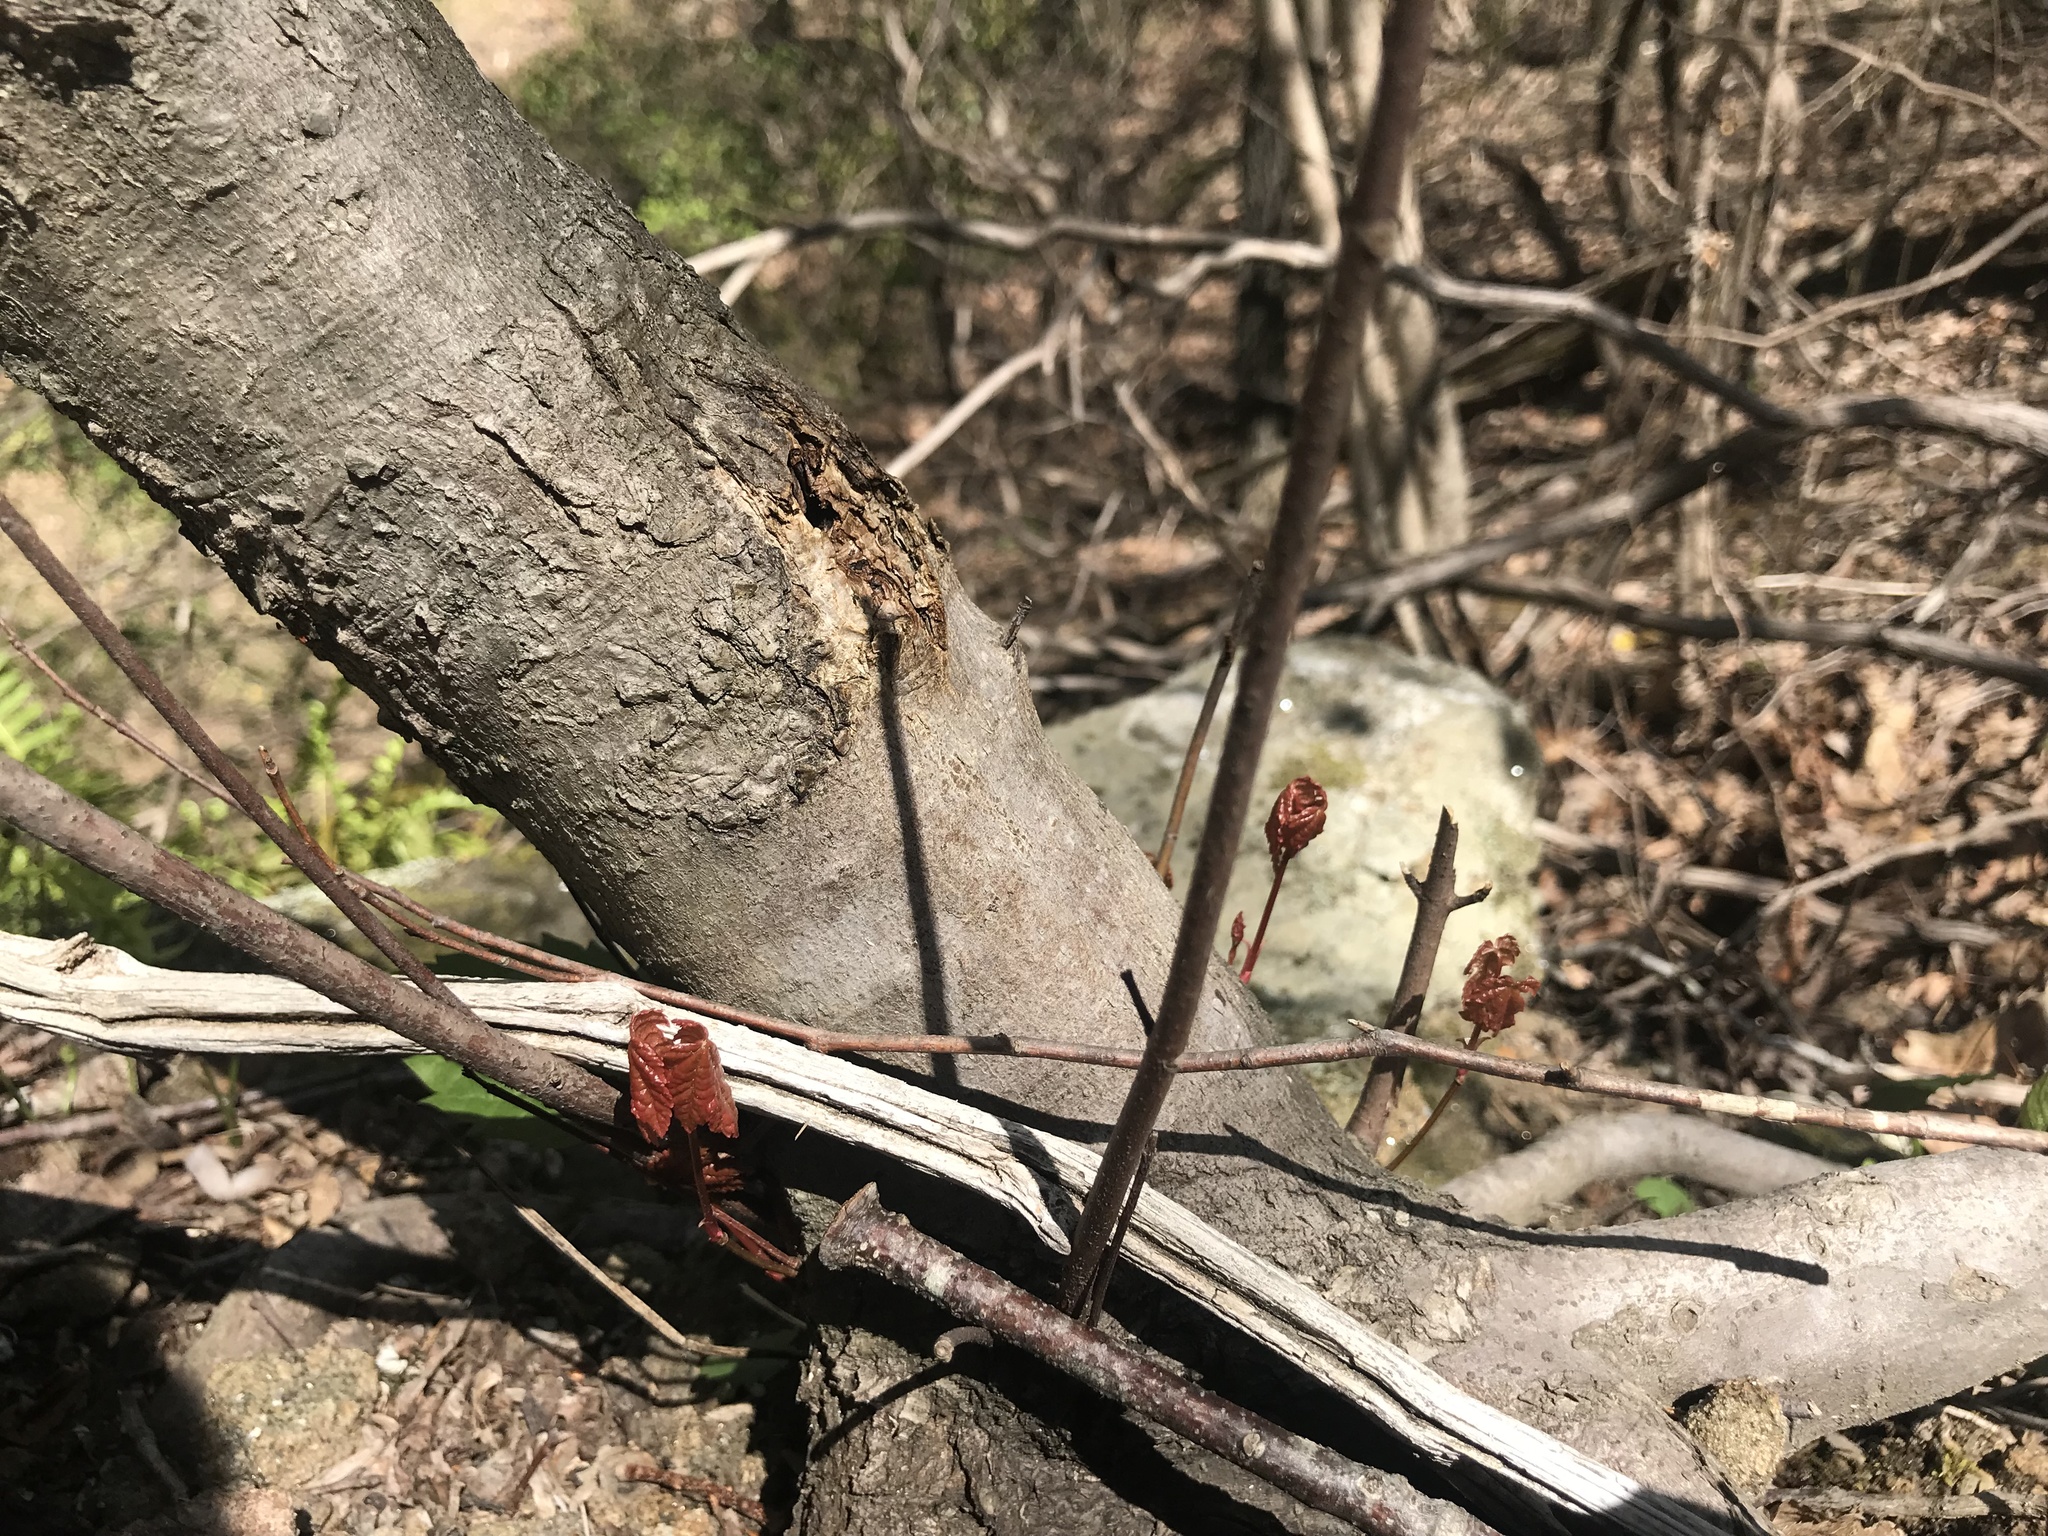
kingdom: Plantae
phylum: Tracheophyta
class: Magnoliopsida
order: Sapindales
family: Sapindaceae
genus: Acer
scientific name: Acer rubrum
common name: Red maple
